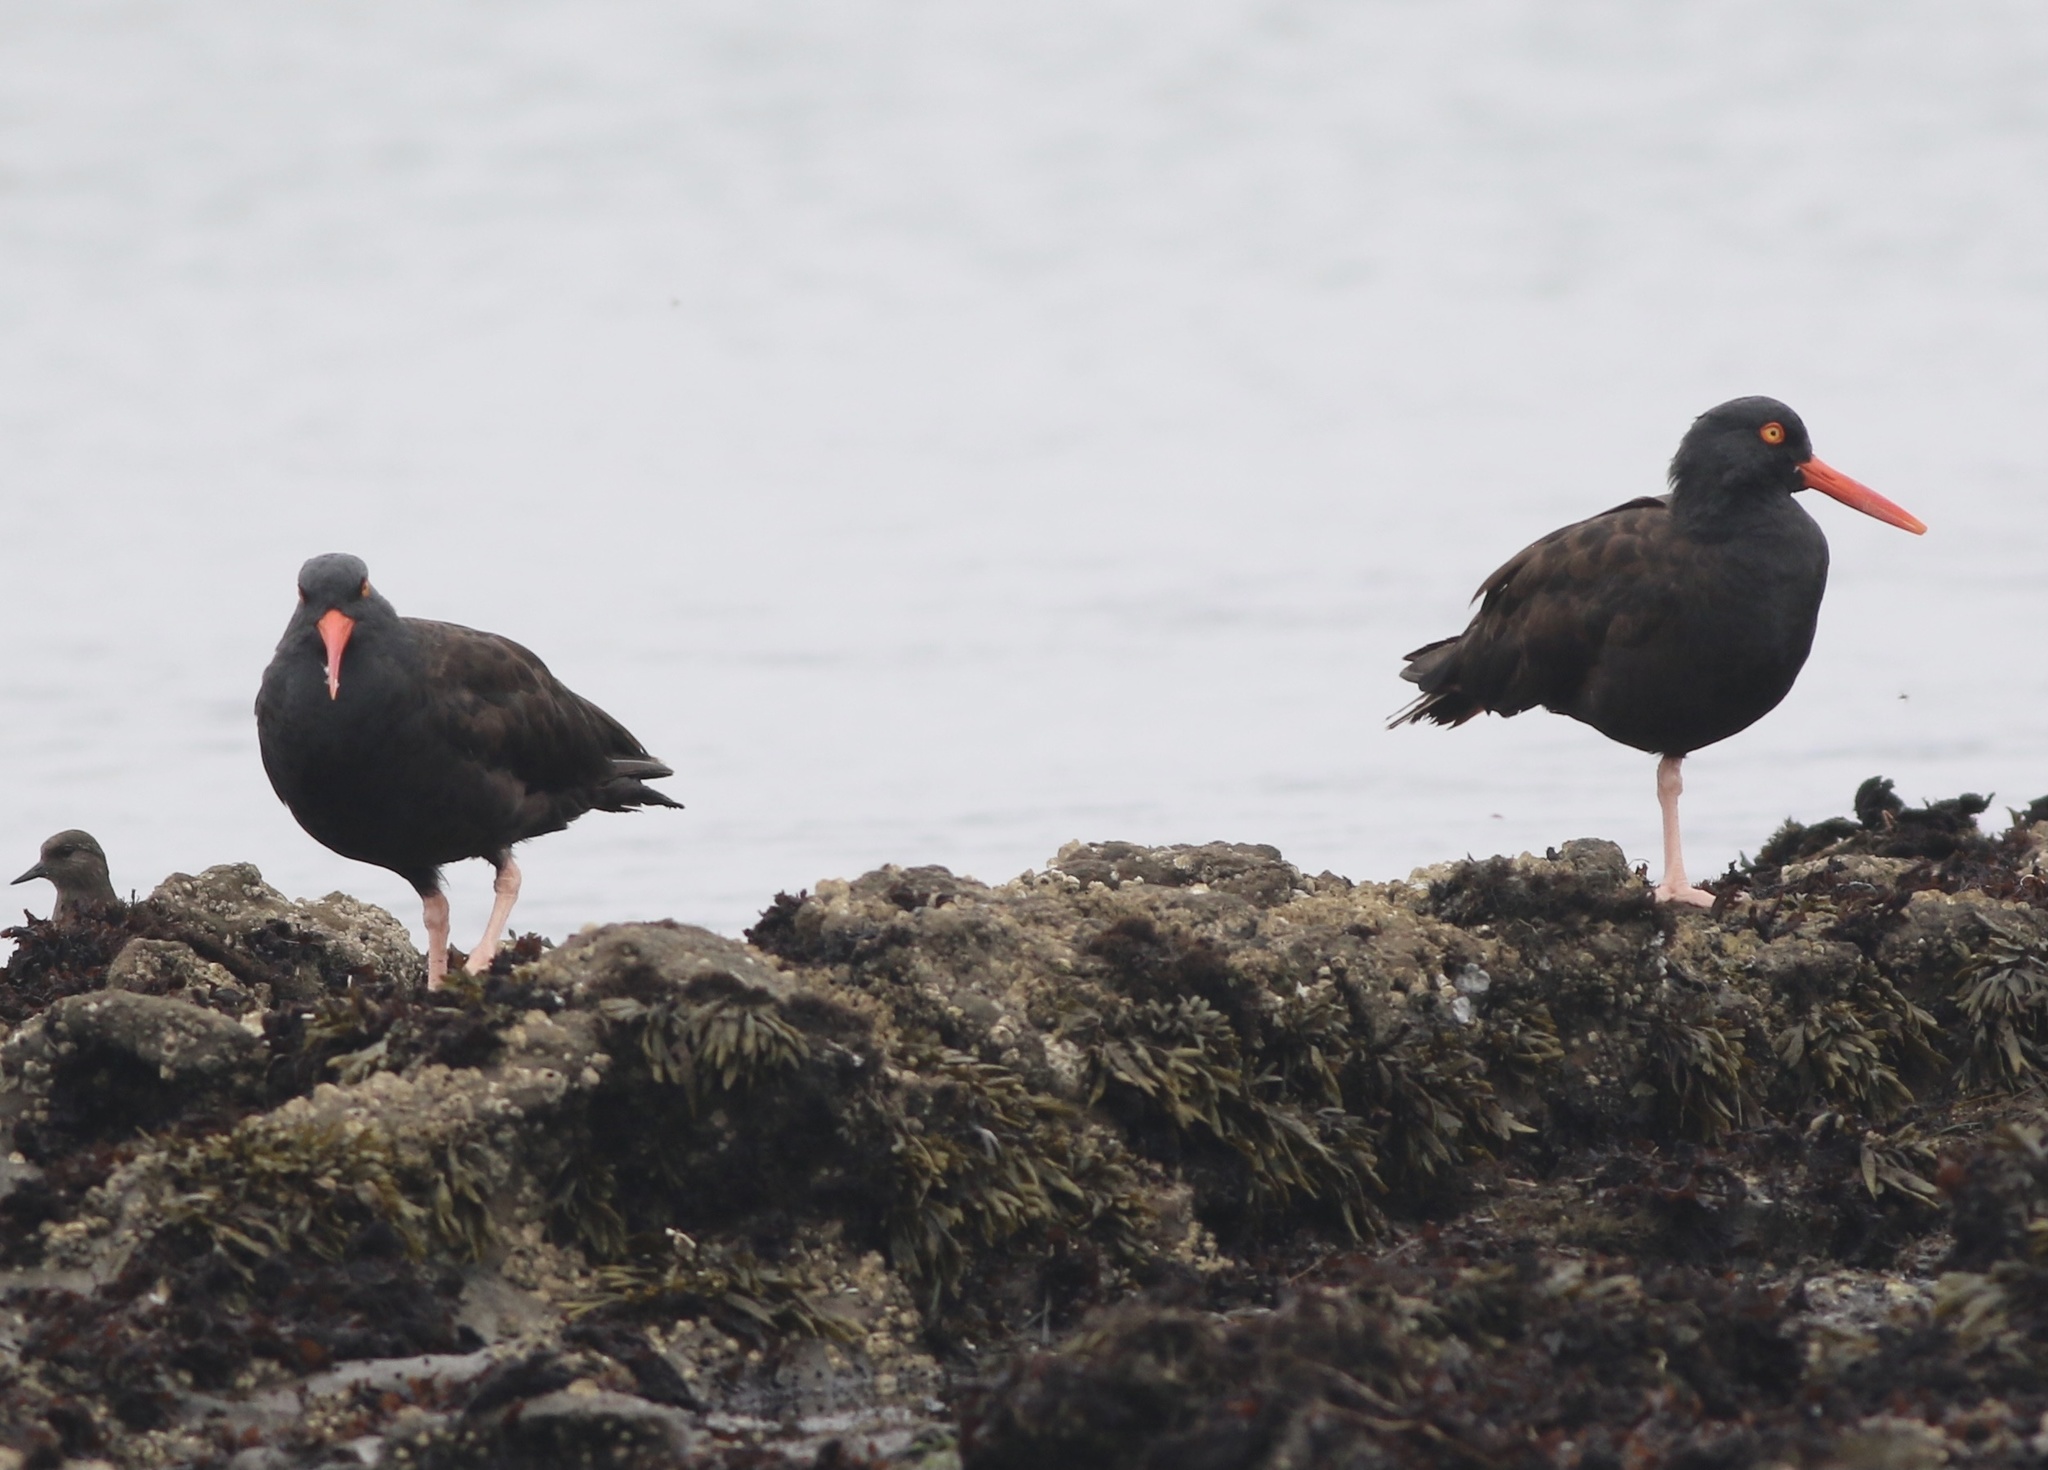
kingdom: Animalia
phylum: Chordata
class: Aves
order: Charadriiformes
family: Haematopodidae
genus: Haematopus
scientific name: Haematopus bachmani
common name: Black oystercatcher
